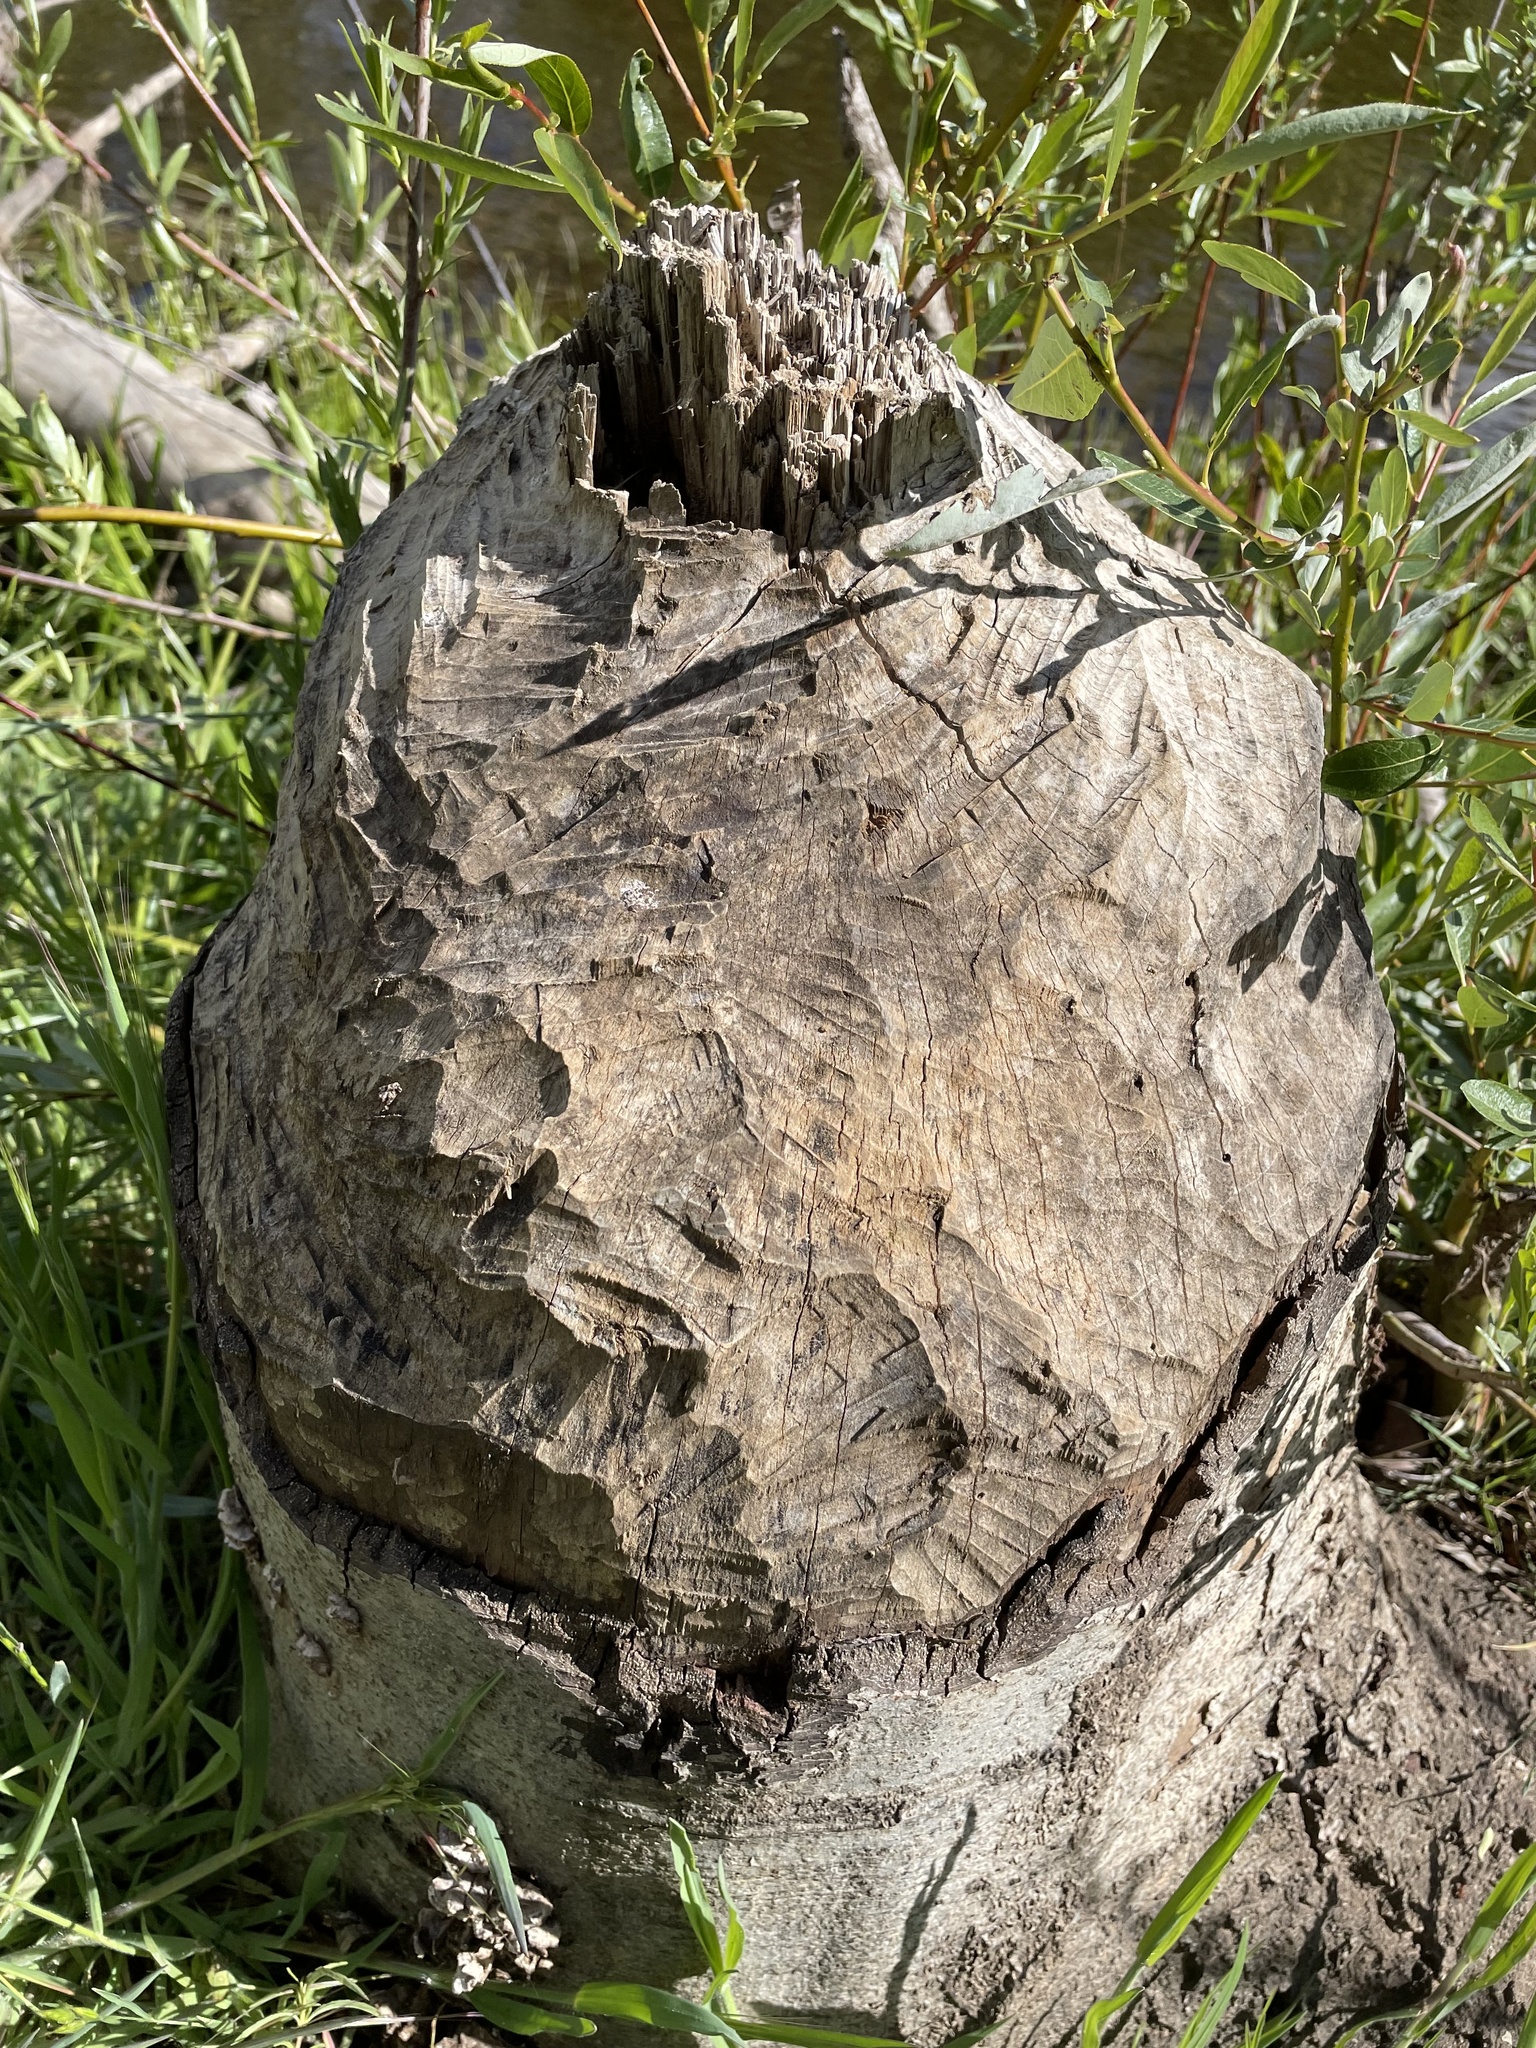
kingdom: Animalia
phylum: Chordata
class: Mammalia
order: Rodentia
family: Castoridae
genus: Castor
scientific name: Castor canadensis
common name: American beaver
